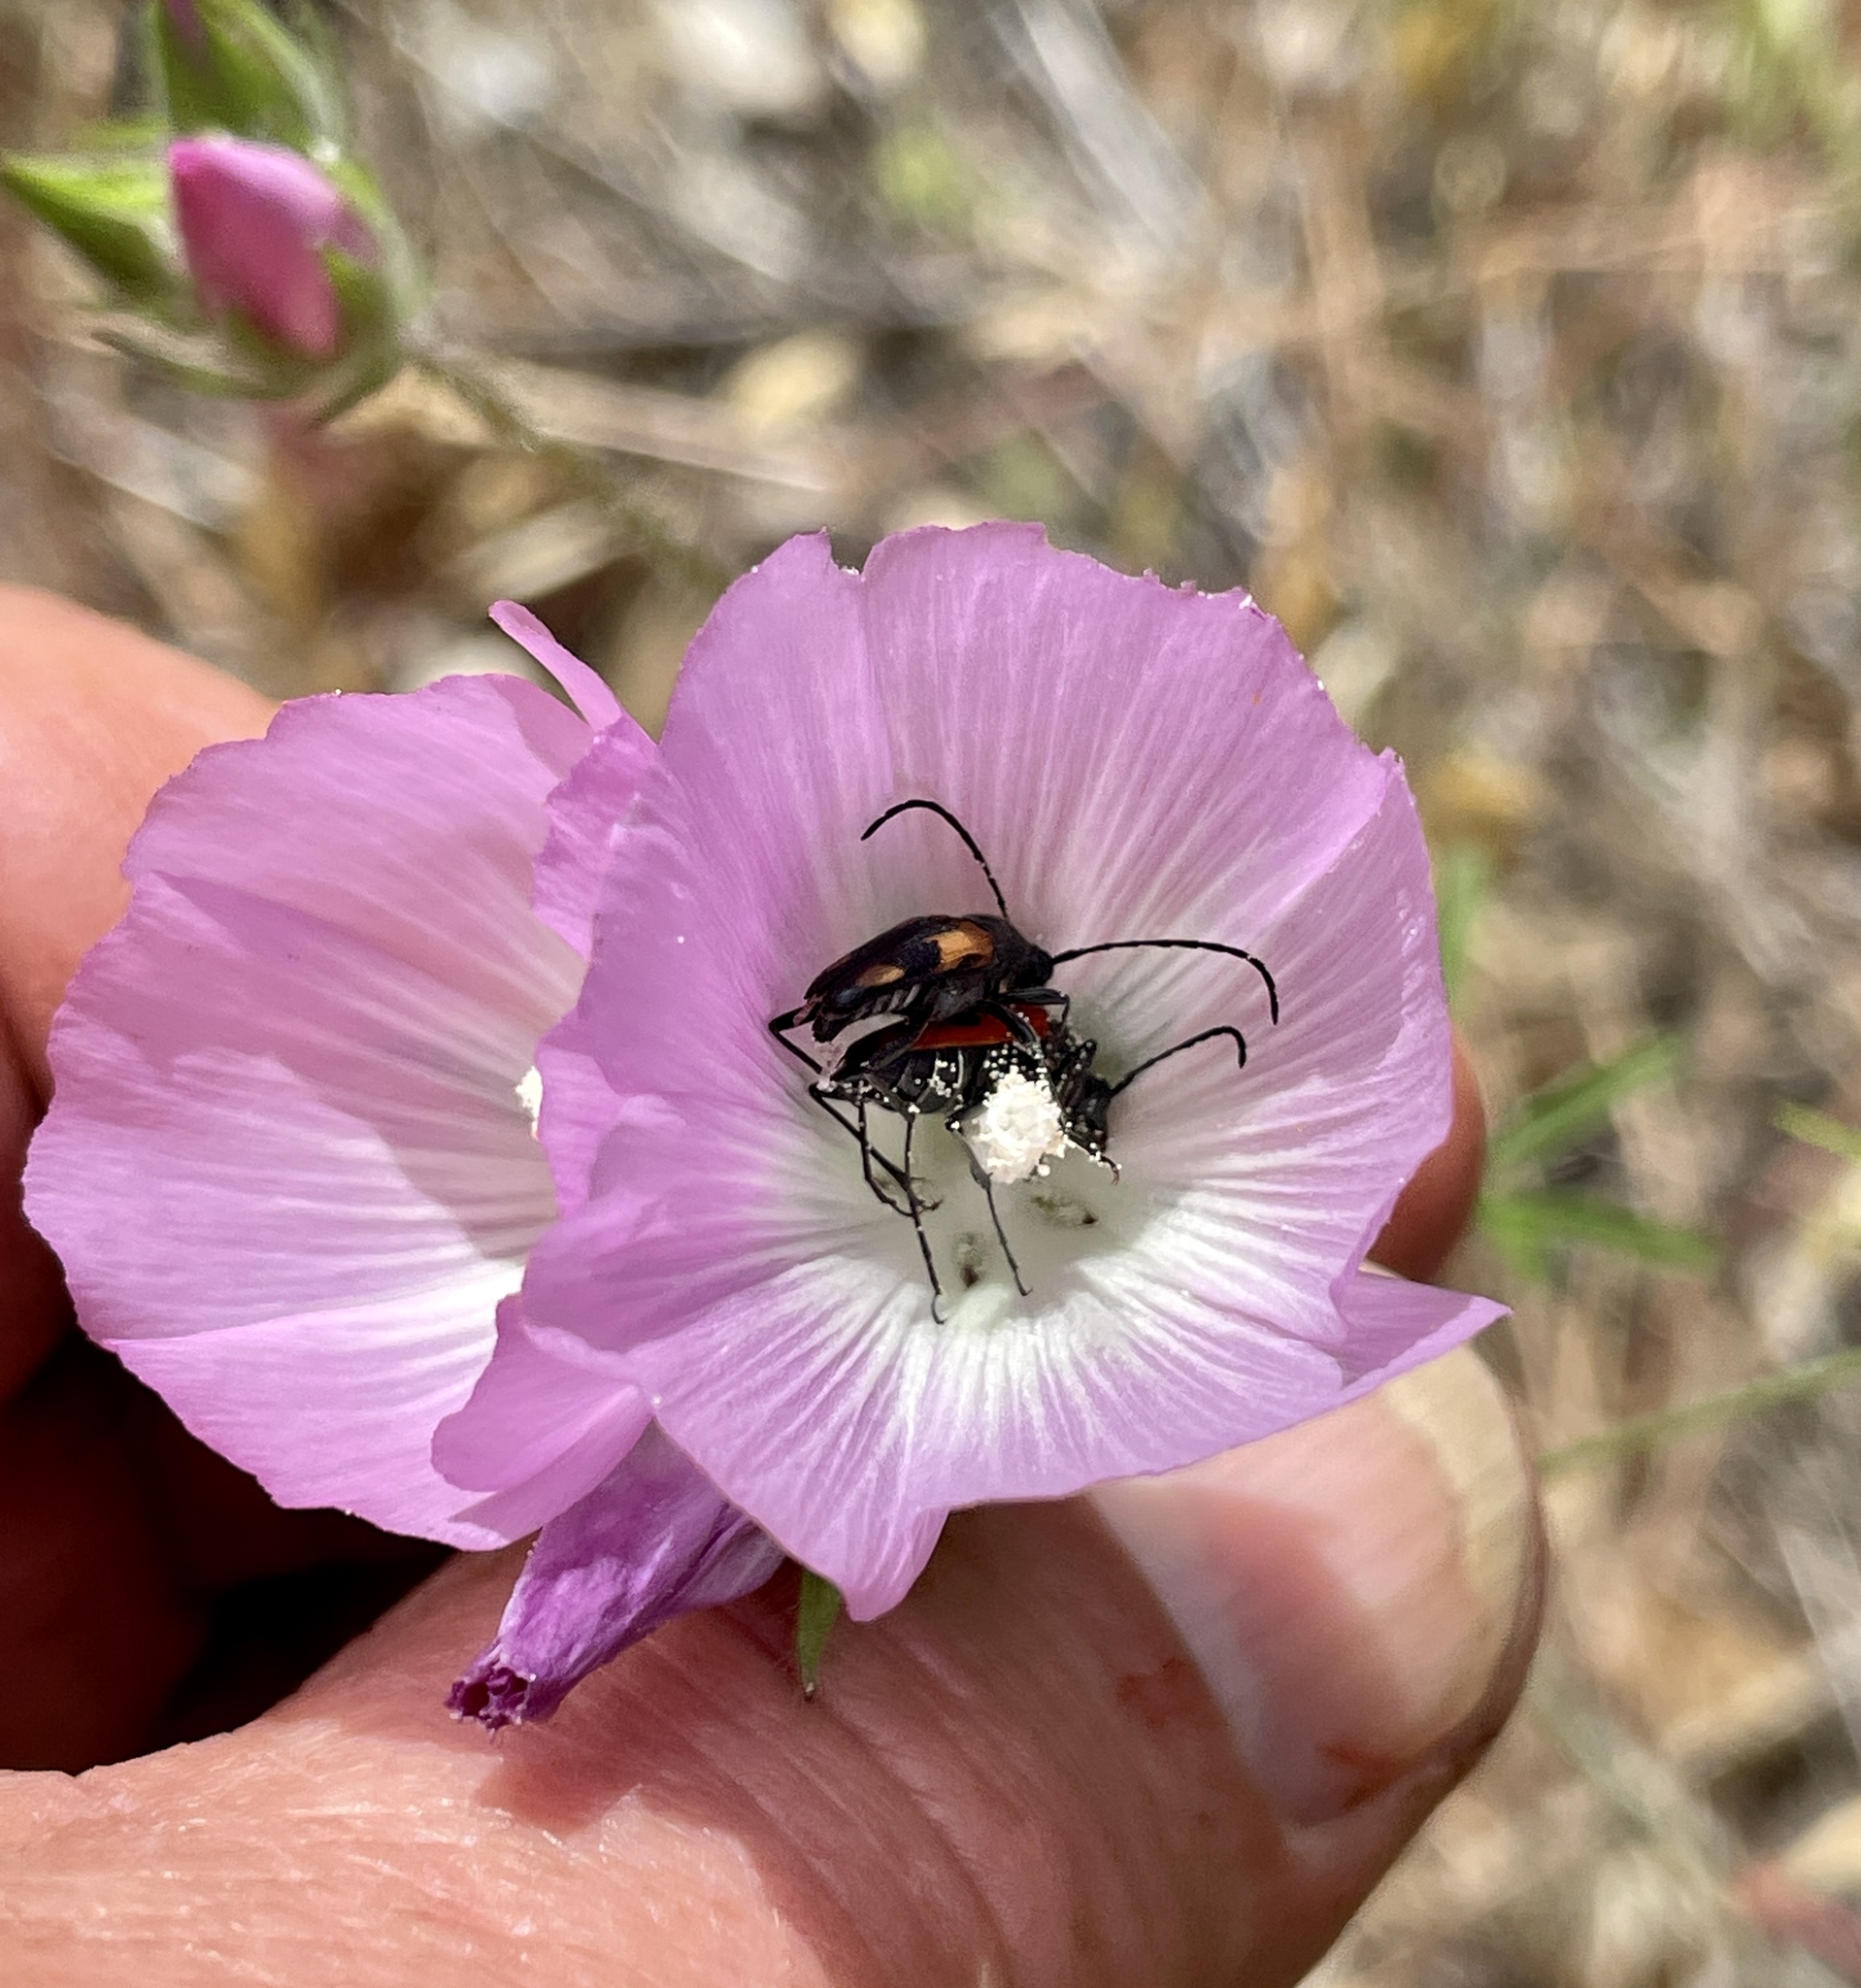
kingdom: Animalia
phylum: Arthropoda
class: Insecta
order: Coleoptera
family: Cerambycidae
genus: Anastrangalia
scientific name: Anastrangalia laetifica
